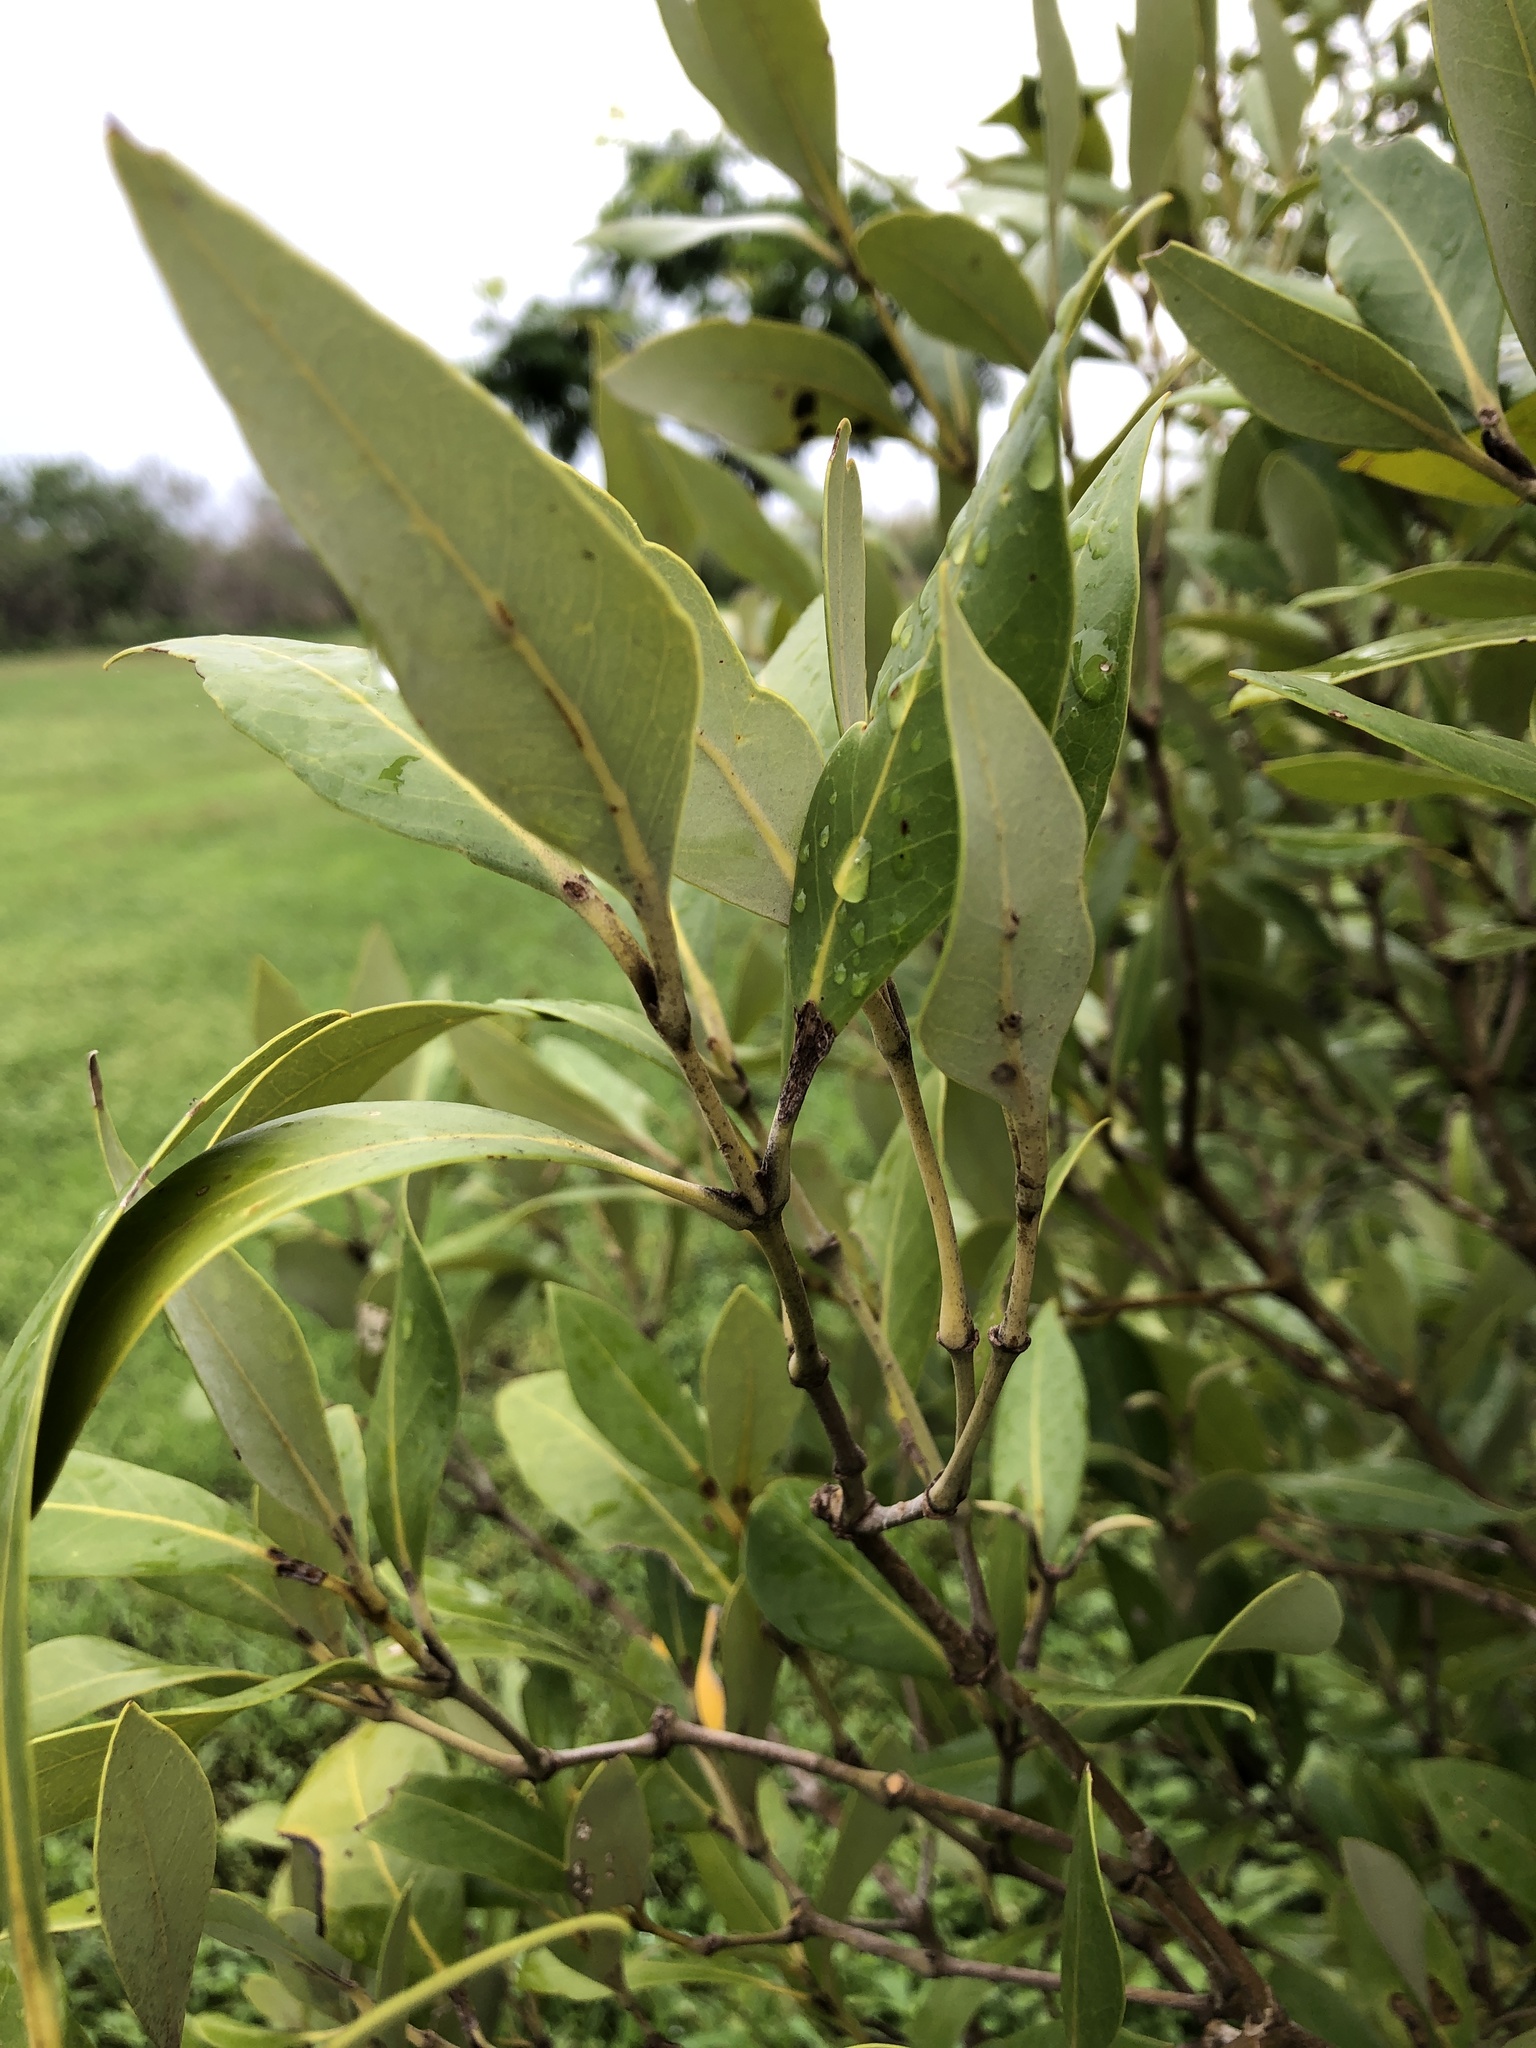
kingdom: Plantae
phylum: Tracheophyta
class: Magnoliopsida
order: Lamiales
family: Acanthaceae
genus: Avicennia
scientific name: Avicennia marina
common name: Gray mangrove
